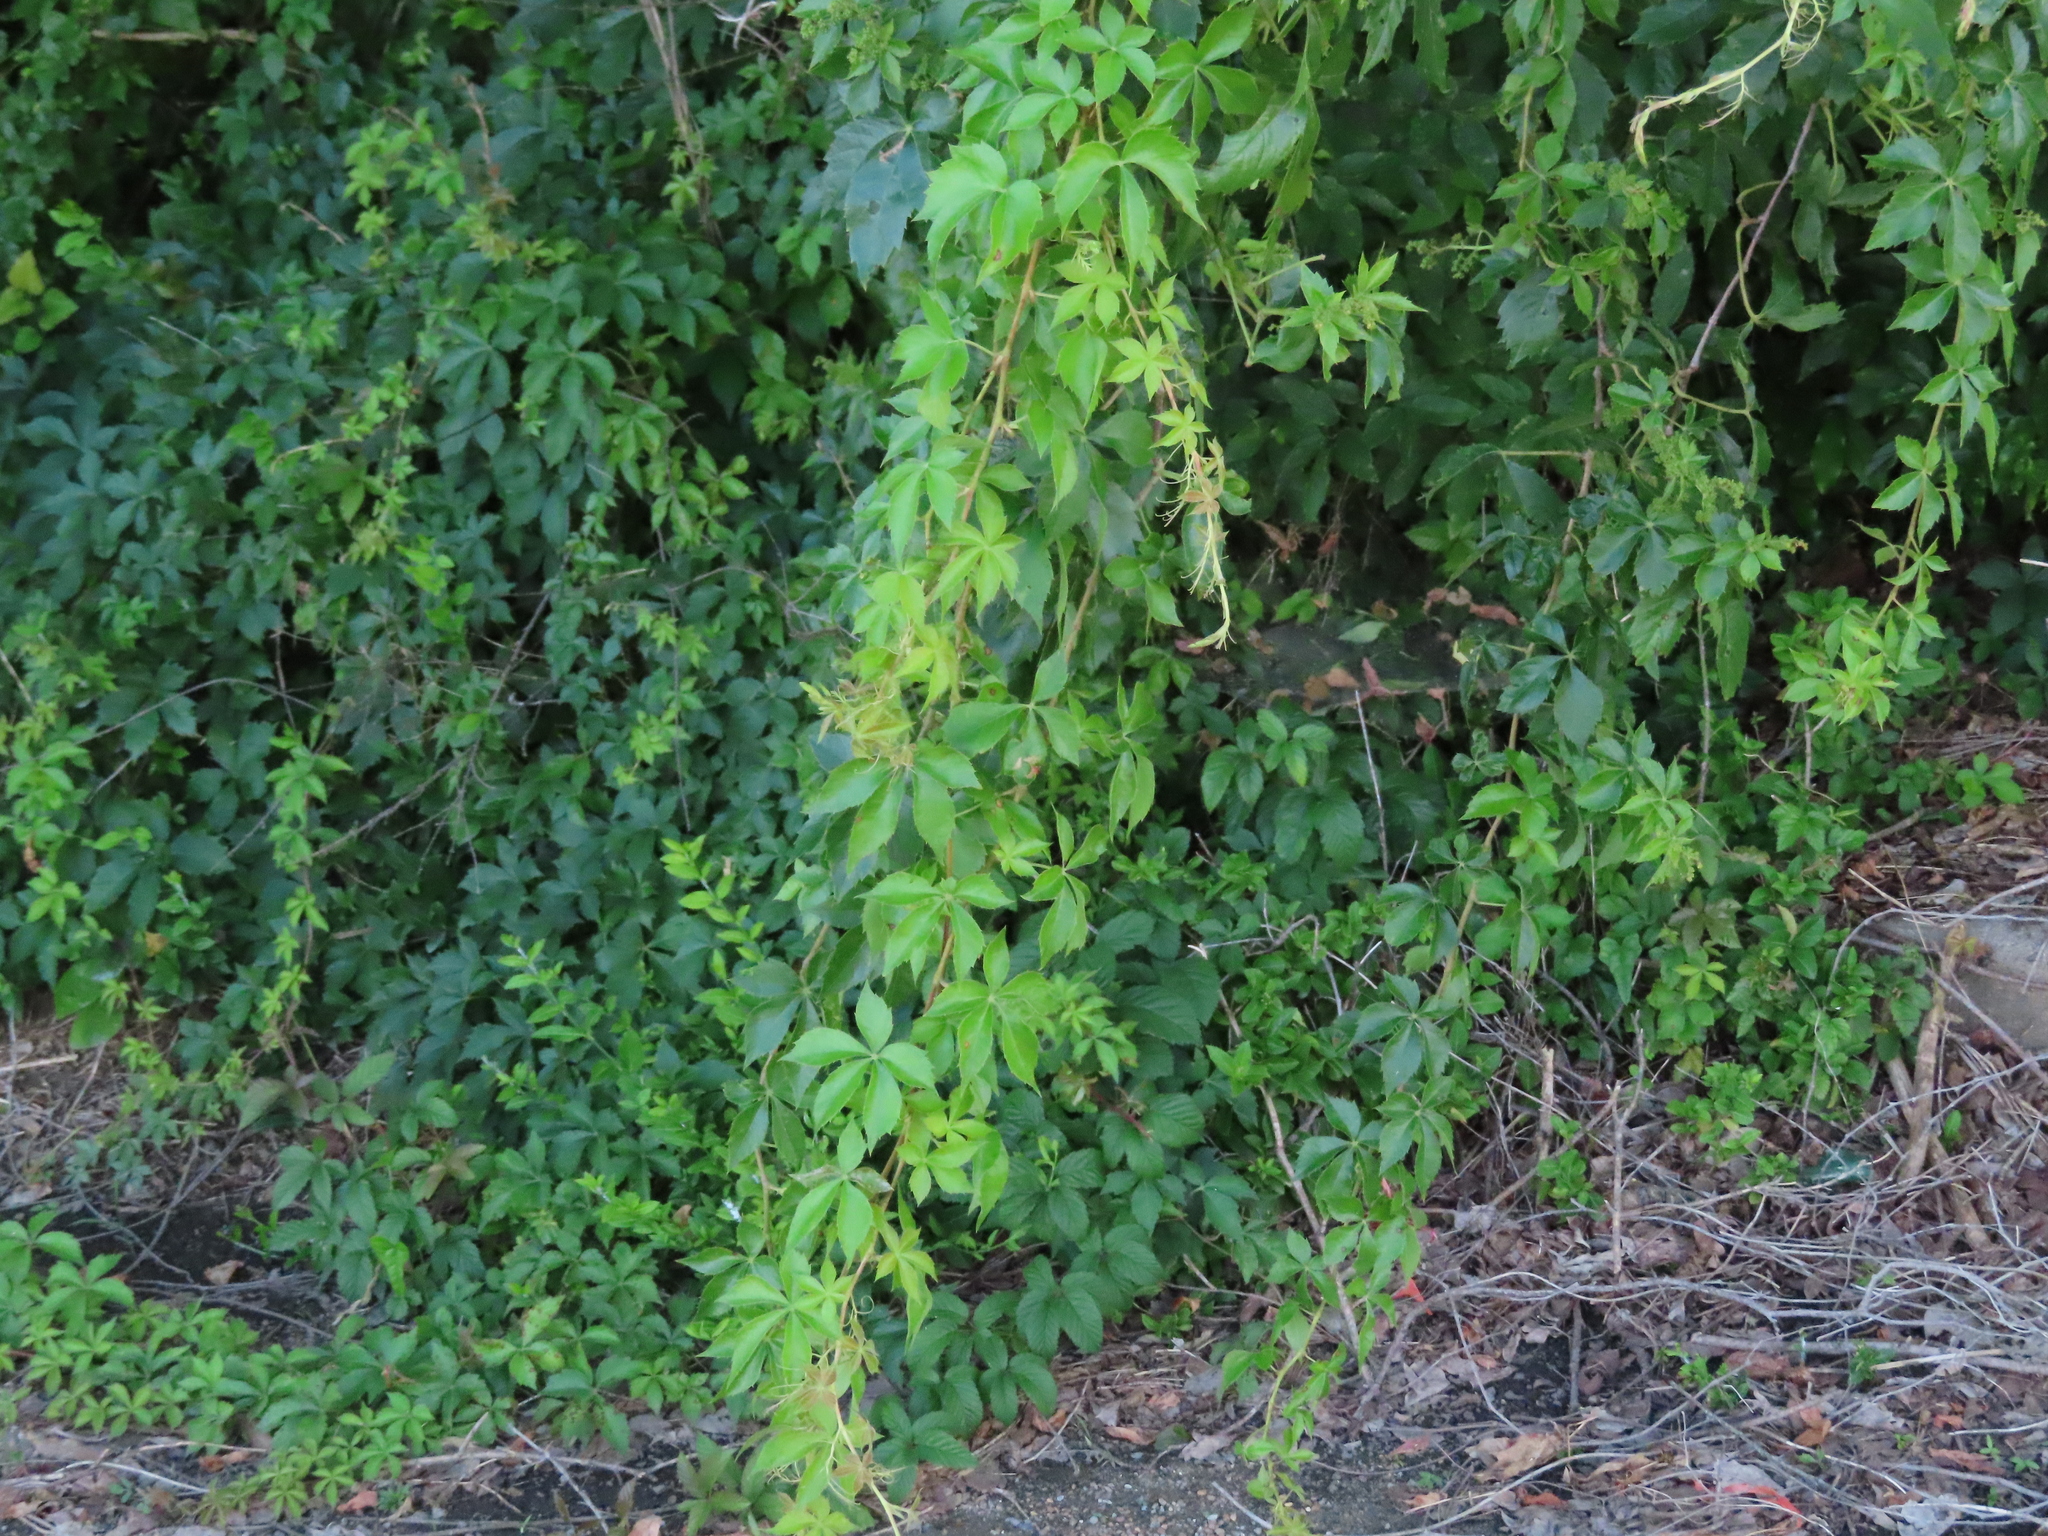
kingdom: Plantae
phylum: Tracheophyta
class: Magnoliopsida
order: Vitales
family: Vitaceae
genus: Parthenocissus
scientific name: Parthenocissus quinquefolia
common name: Virginia-creeper
